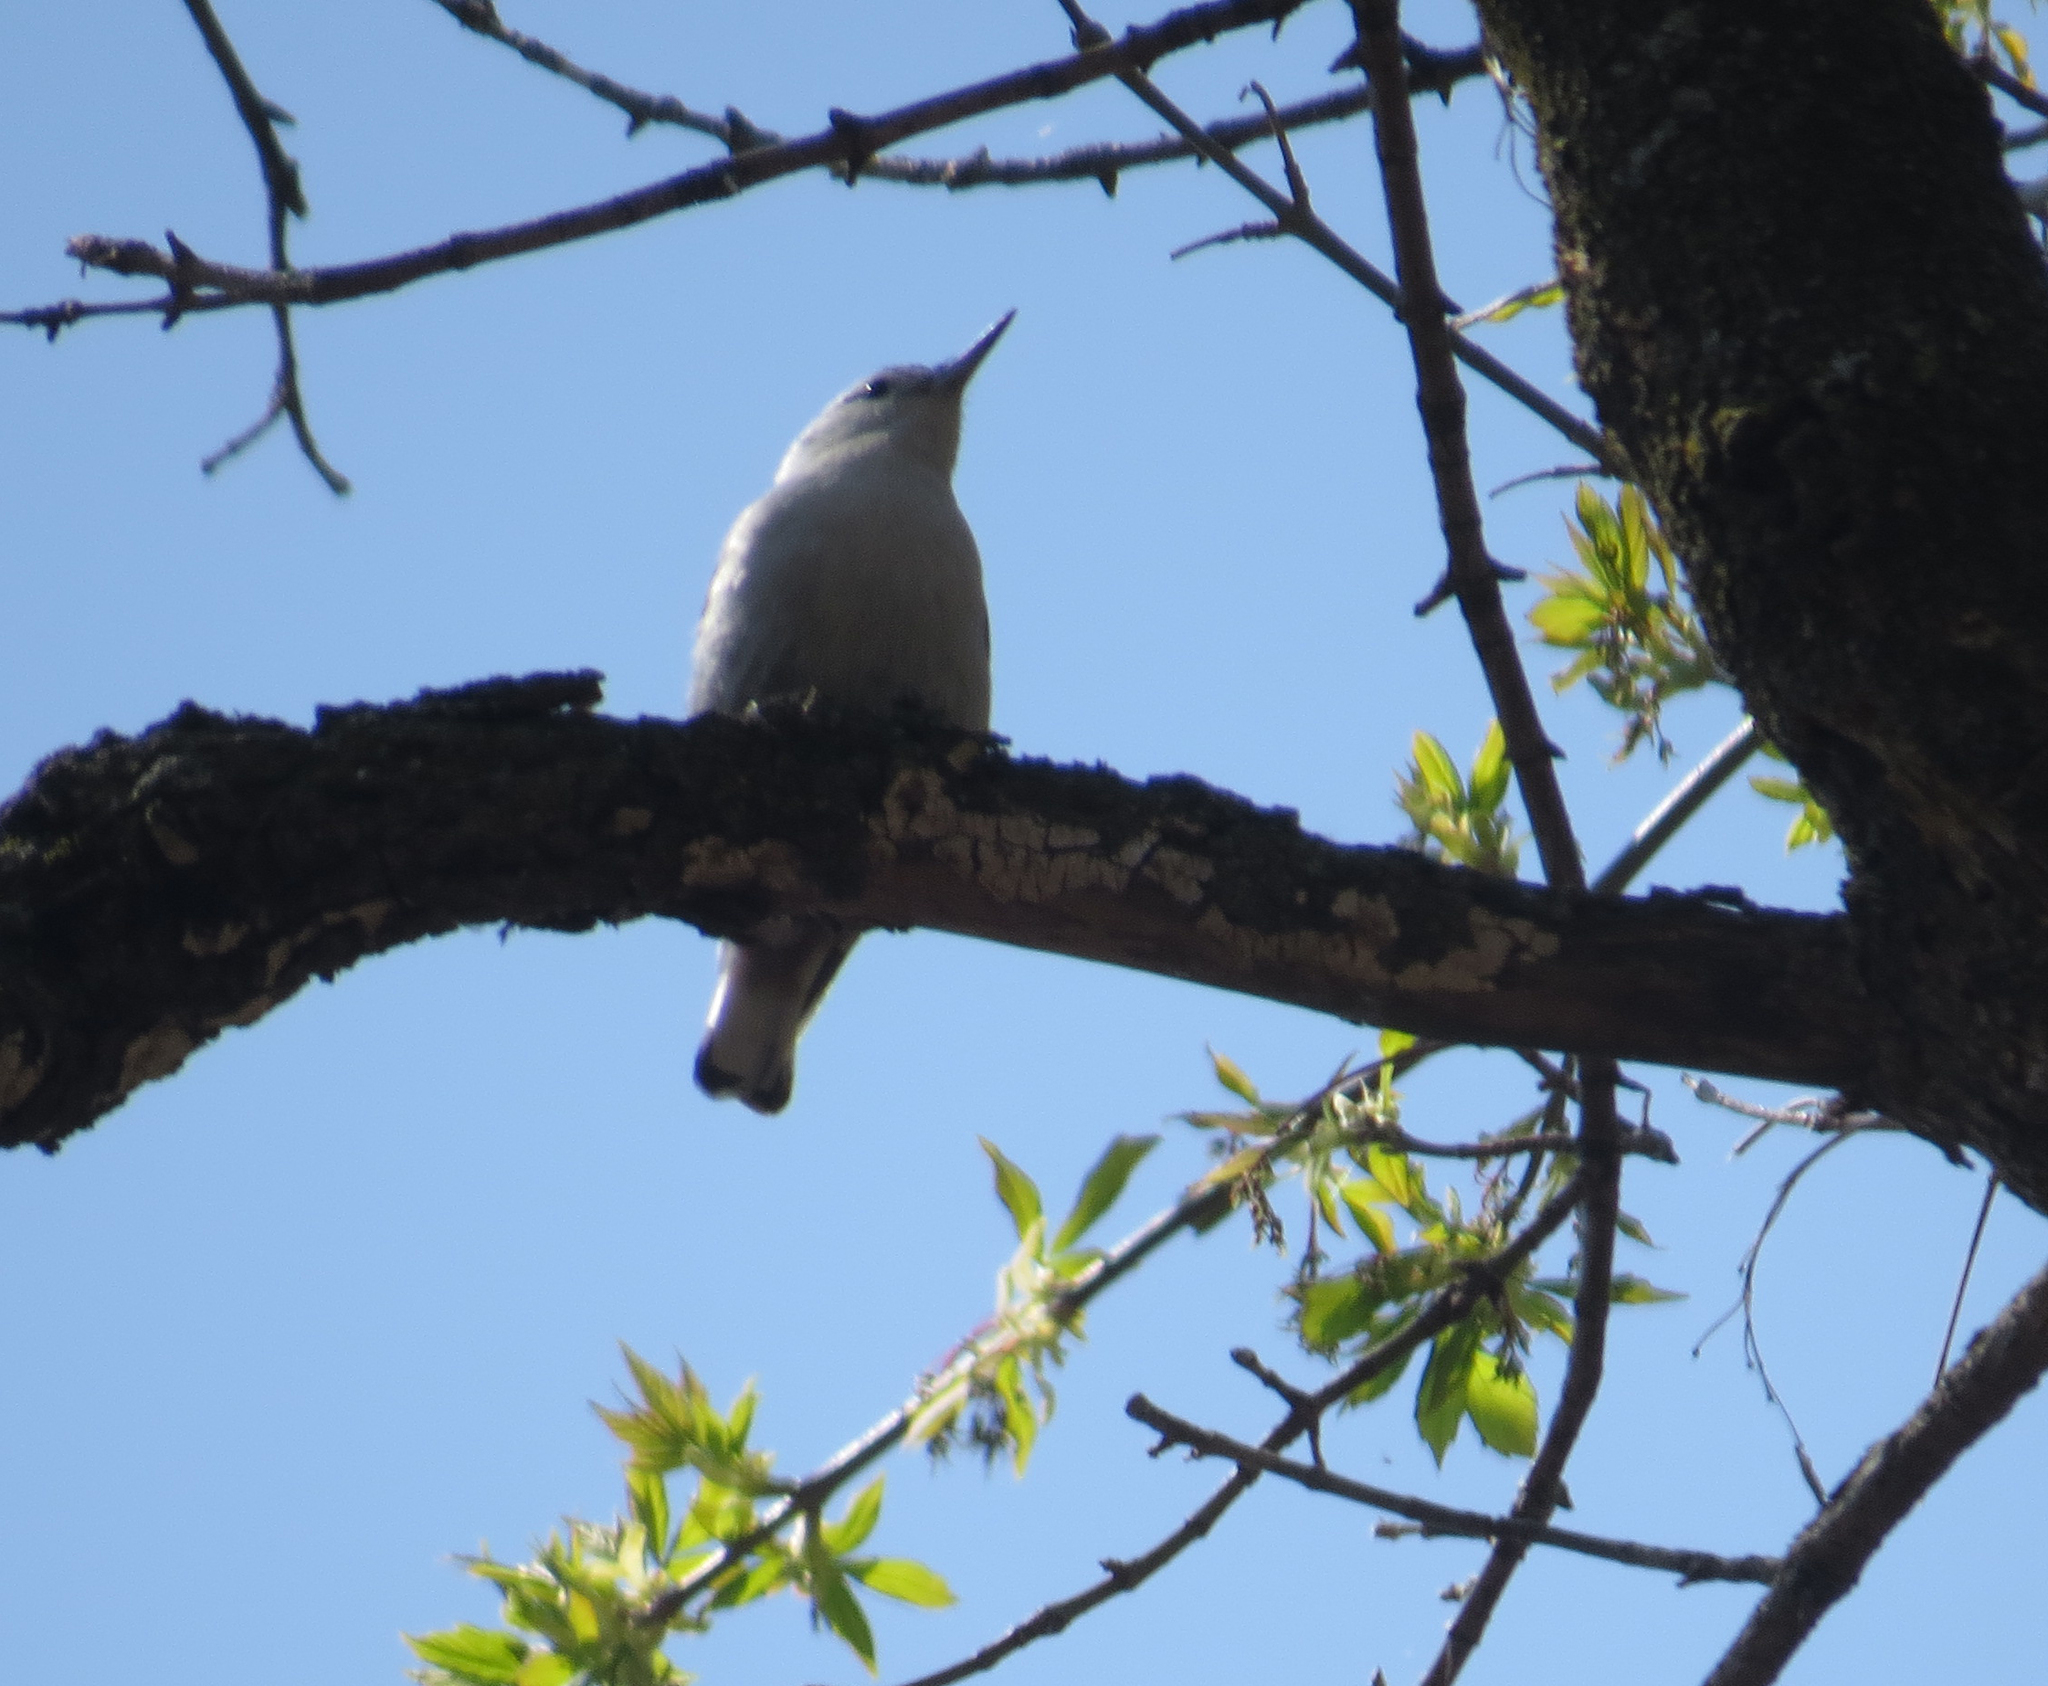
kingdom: Animalia
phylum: Chordata
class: Aves
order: Passeriformes
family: Sittidae
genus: Sitta
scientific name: Sitta carolinensis
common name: White-breasted nuthatch
